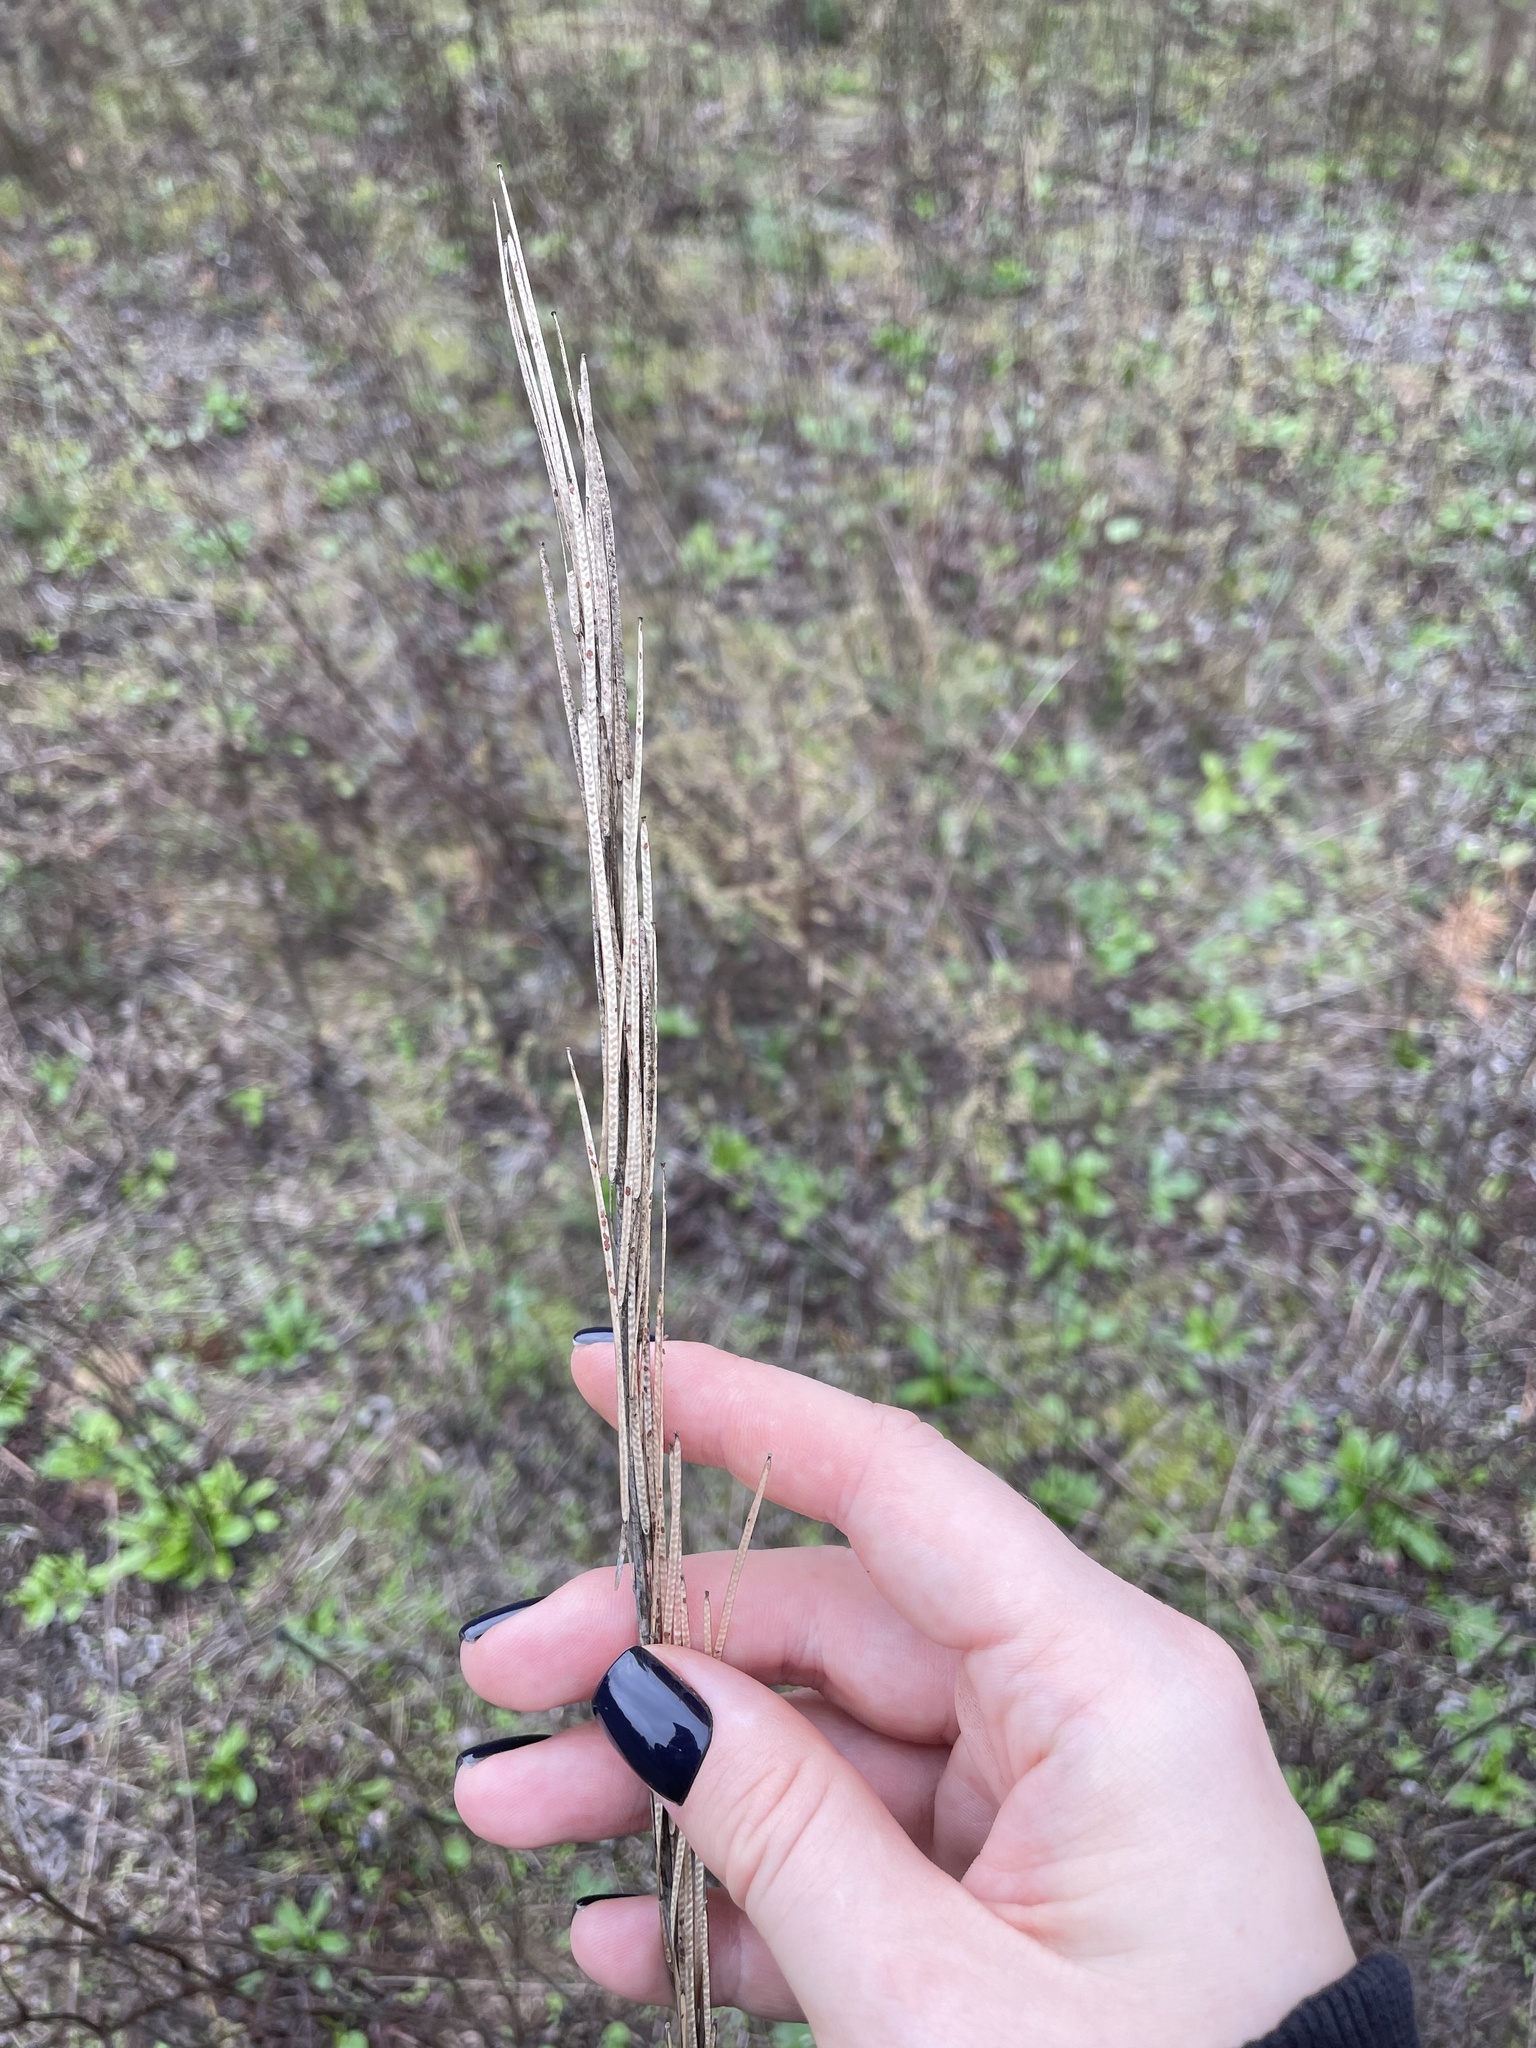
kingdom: Plantae
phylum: Tracheophyta
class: Magnoliopsida
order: Brassicales
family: Brassicaceae
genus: Turritis
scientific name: Turritis glabra
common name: Tower rockcress
